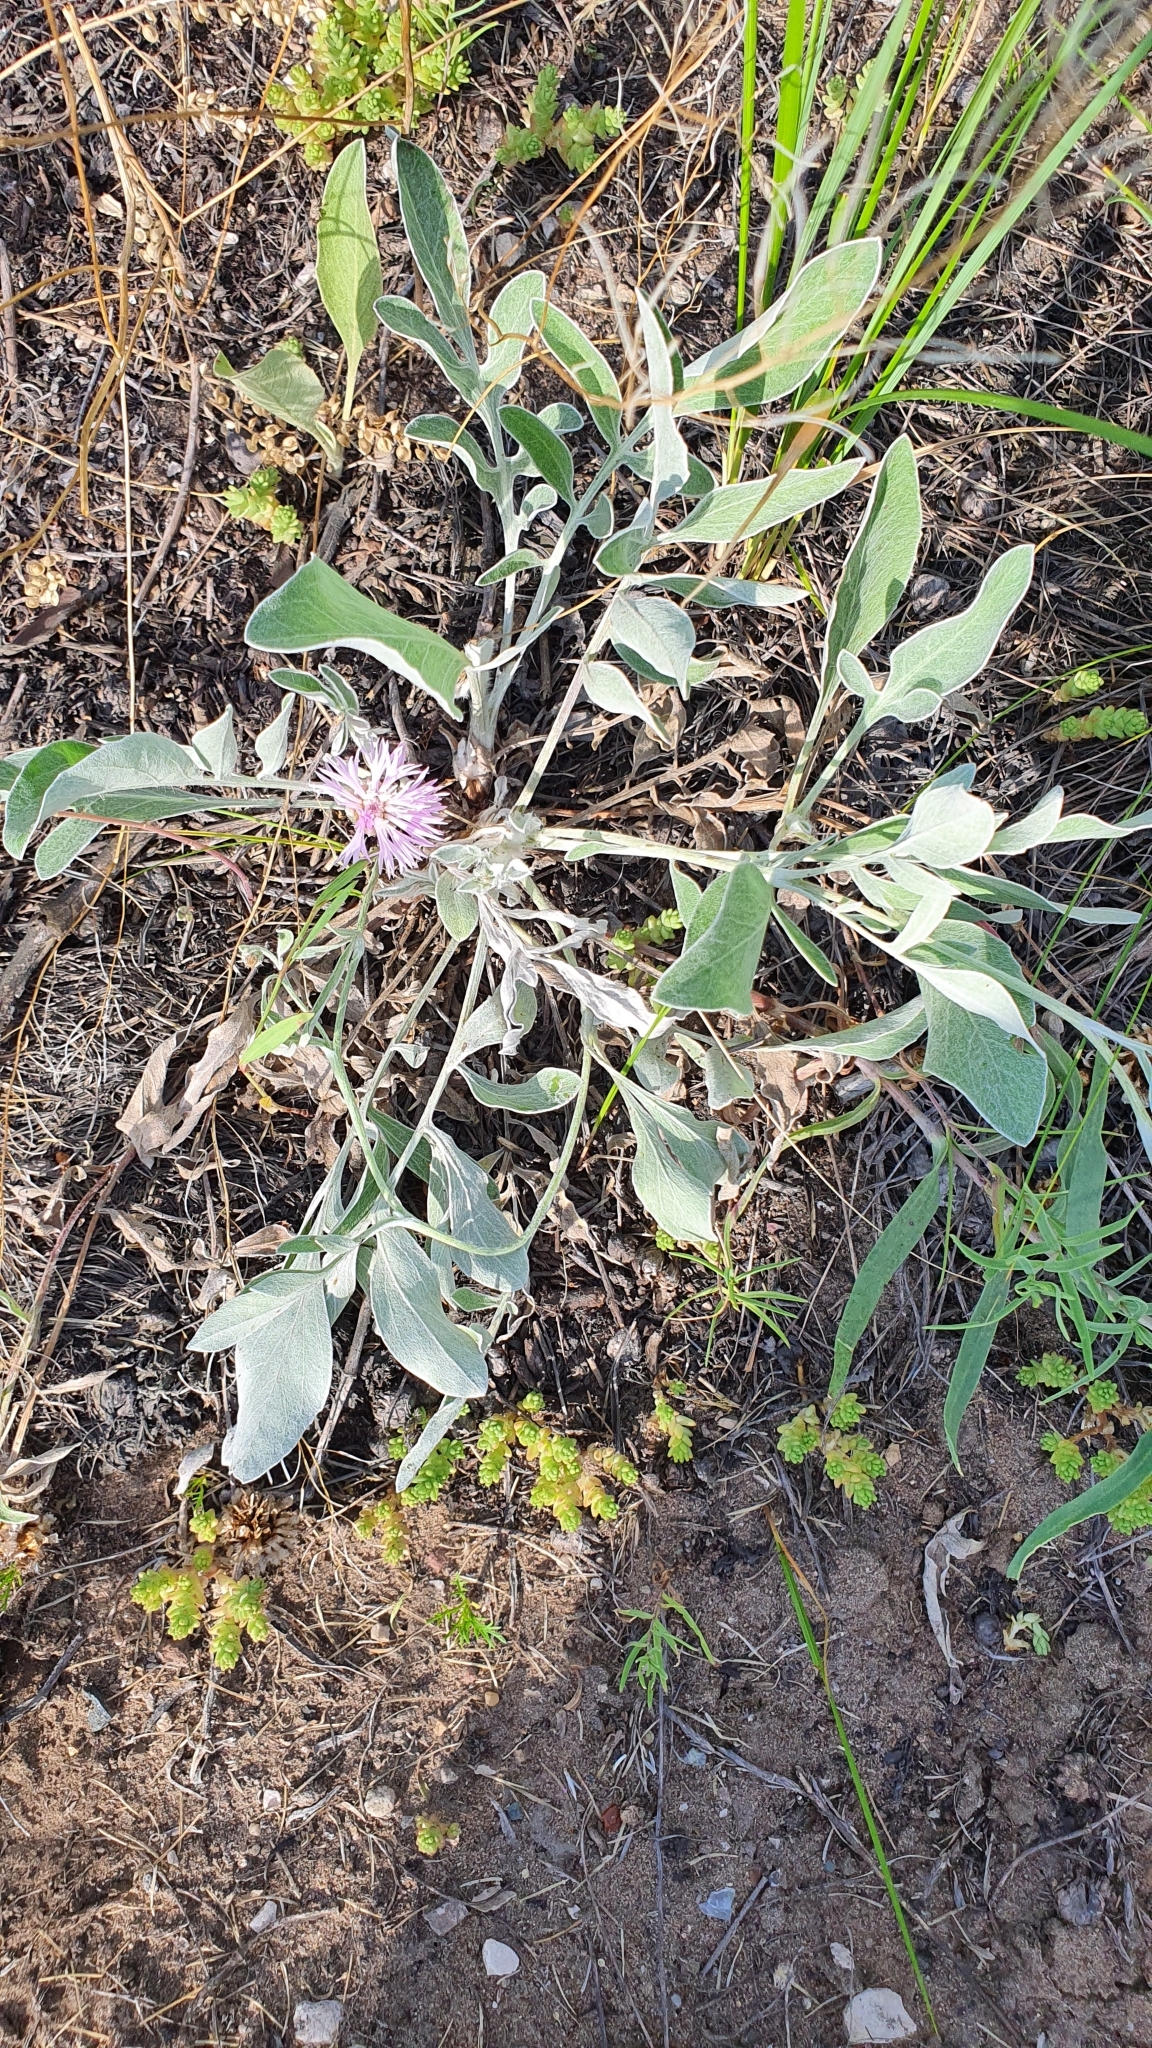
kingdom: Plantae
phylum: Tracheophyta
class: Magnoliopsida
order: Asterales
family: Asteraceae
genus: Psephellus
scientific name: Psephellus marschallianus
